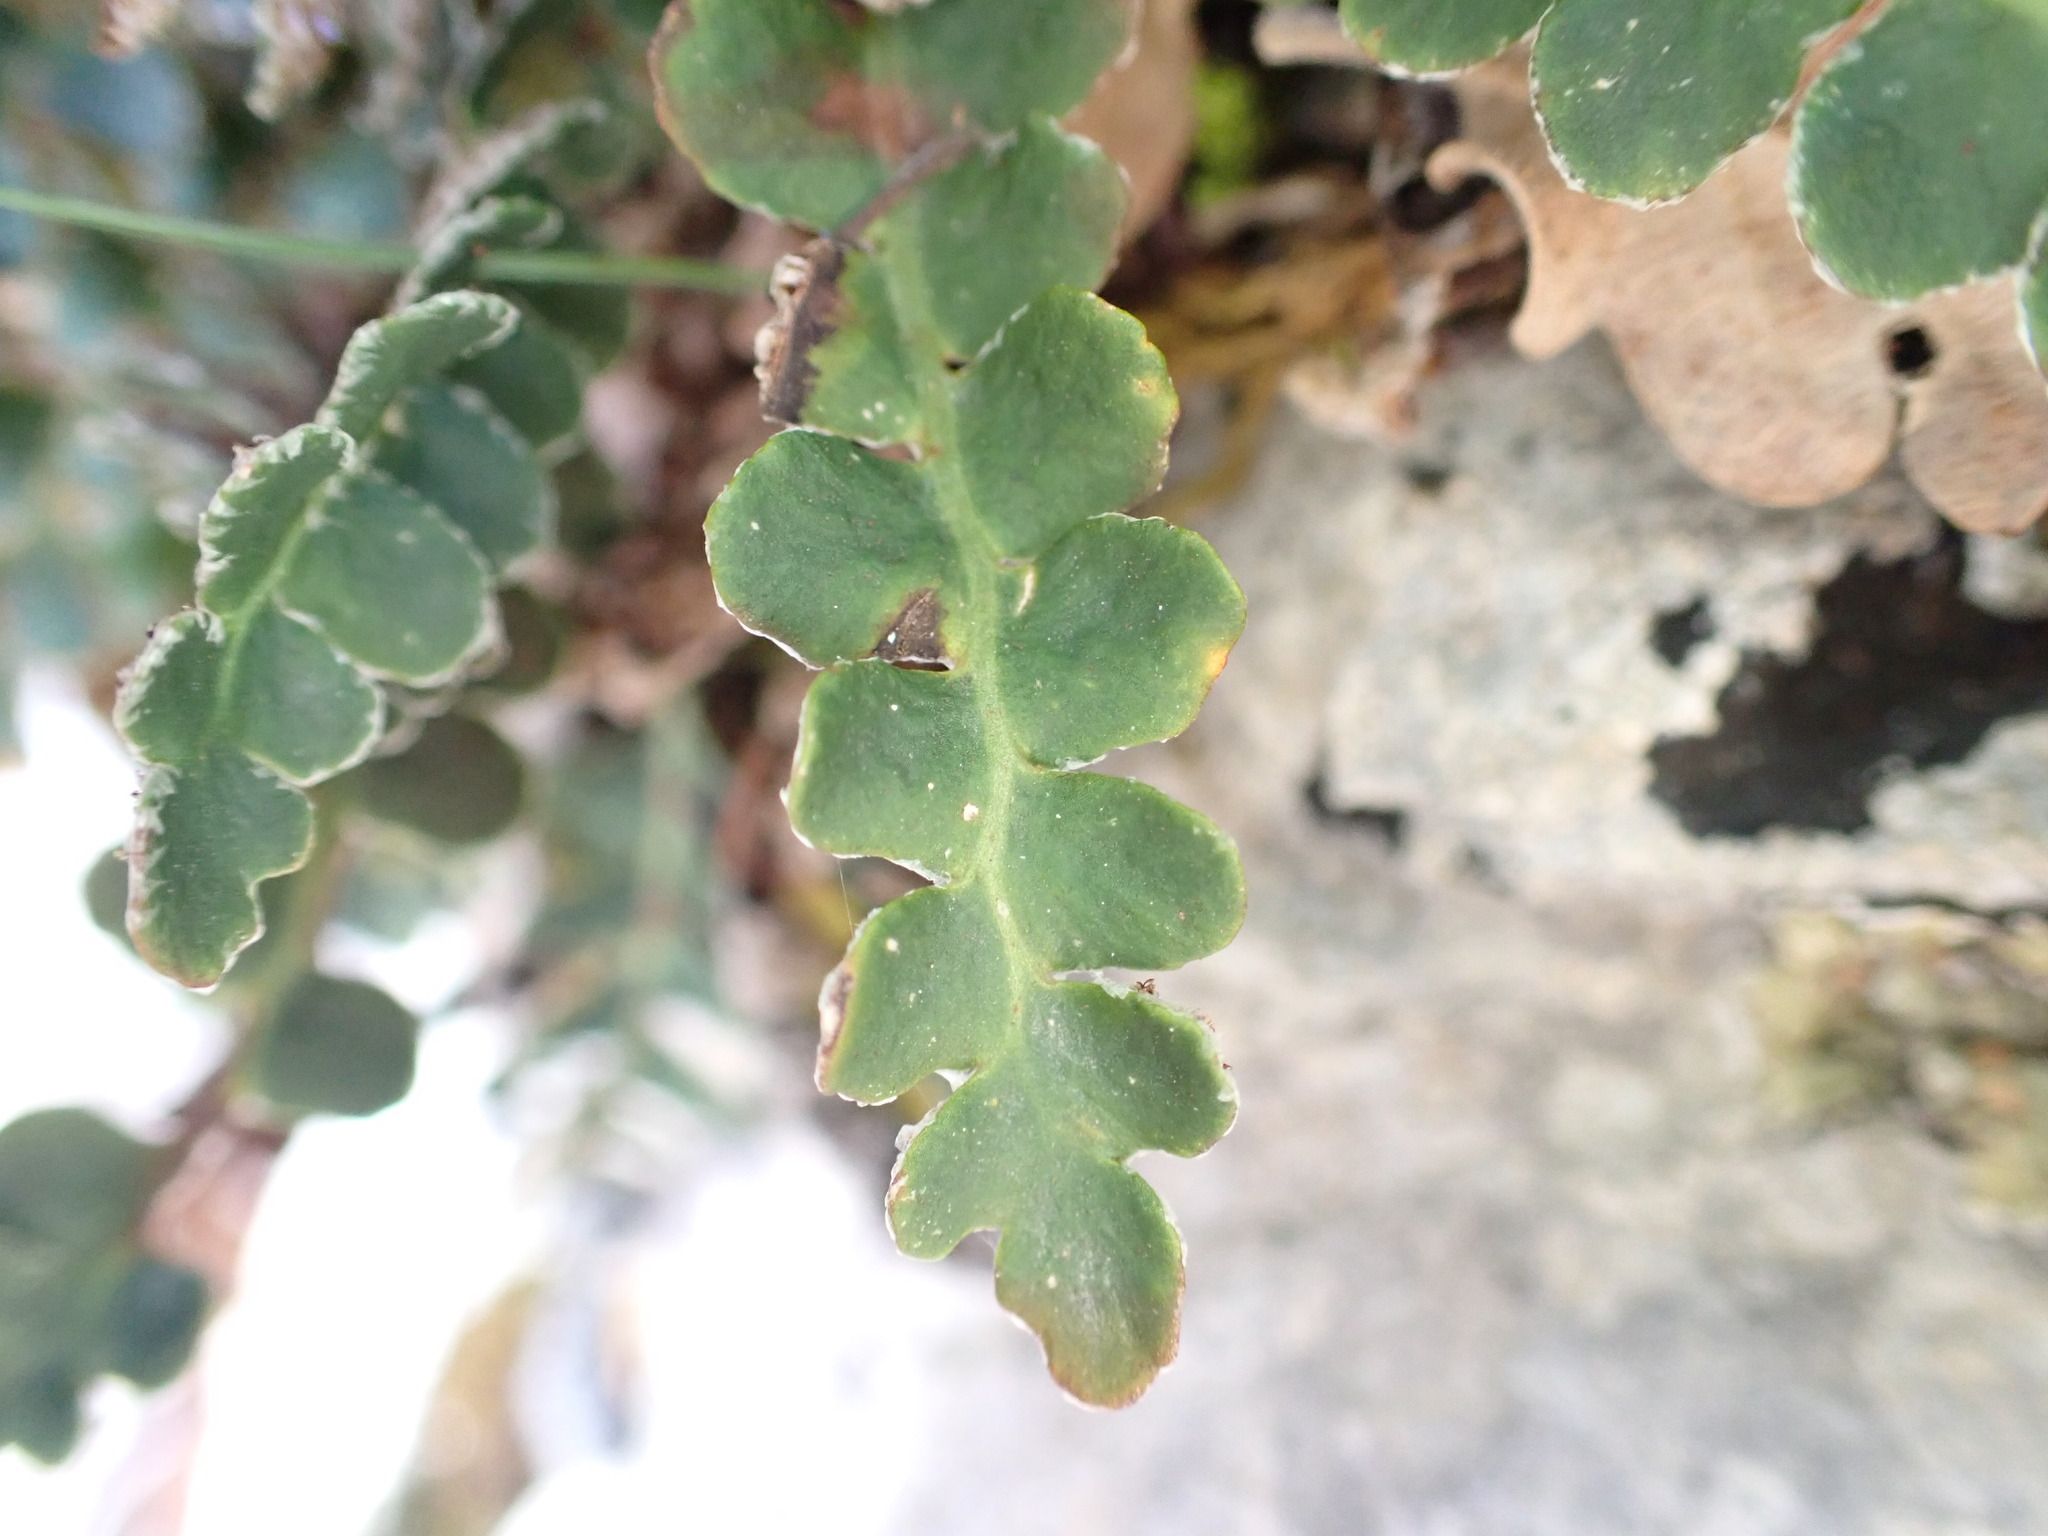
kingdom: Plantae
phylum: Tracheophyta
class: Polypodiopsida
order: Polypodiales
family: Aspleniaceae
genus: Asplenium
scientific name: Asplenium ceterach
